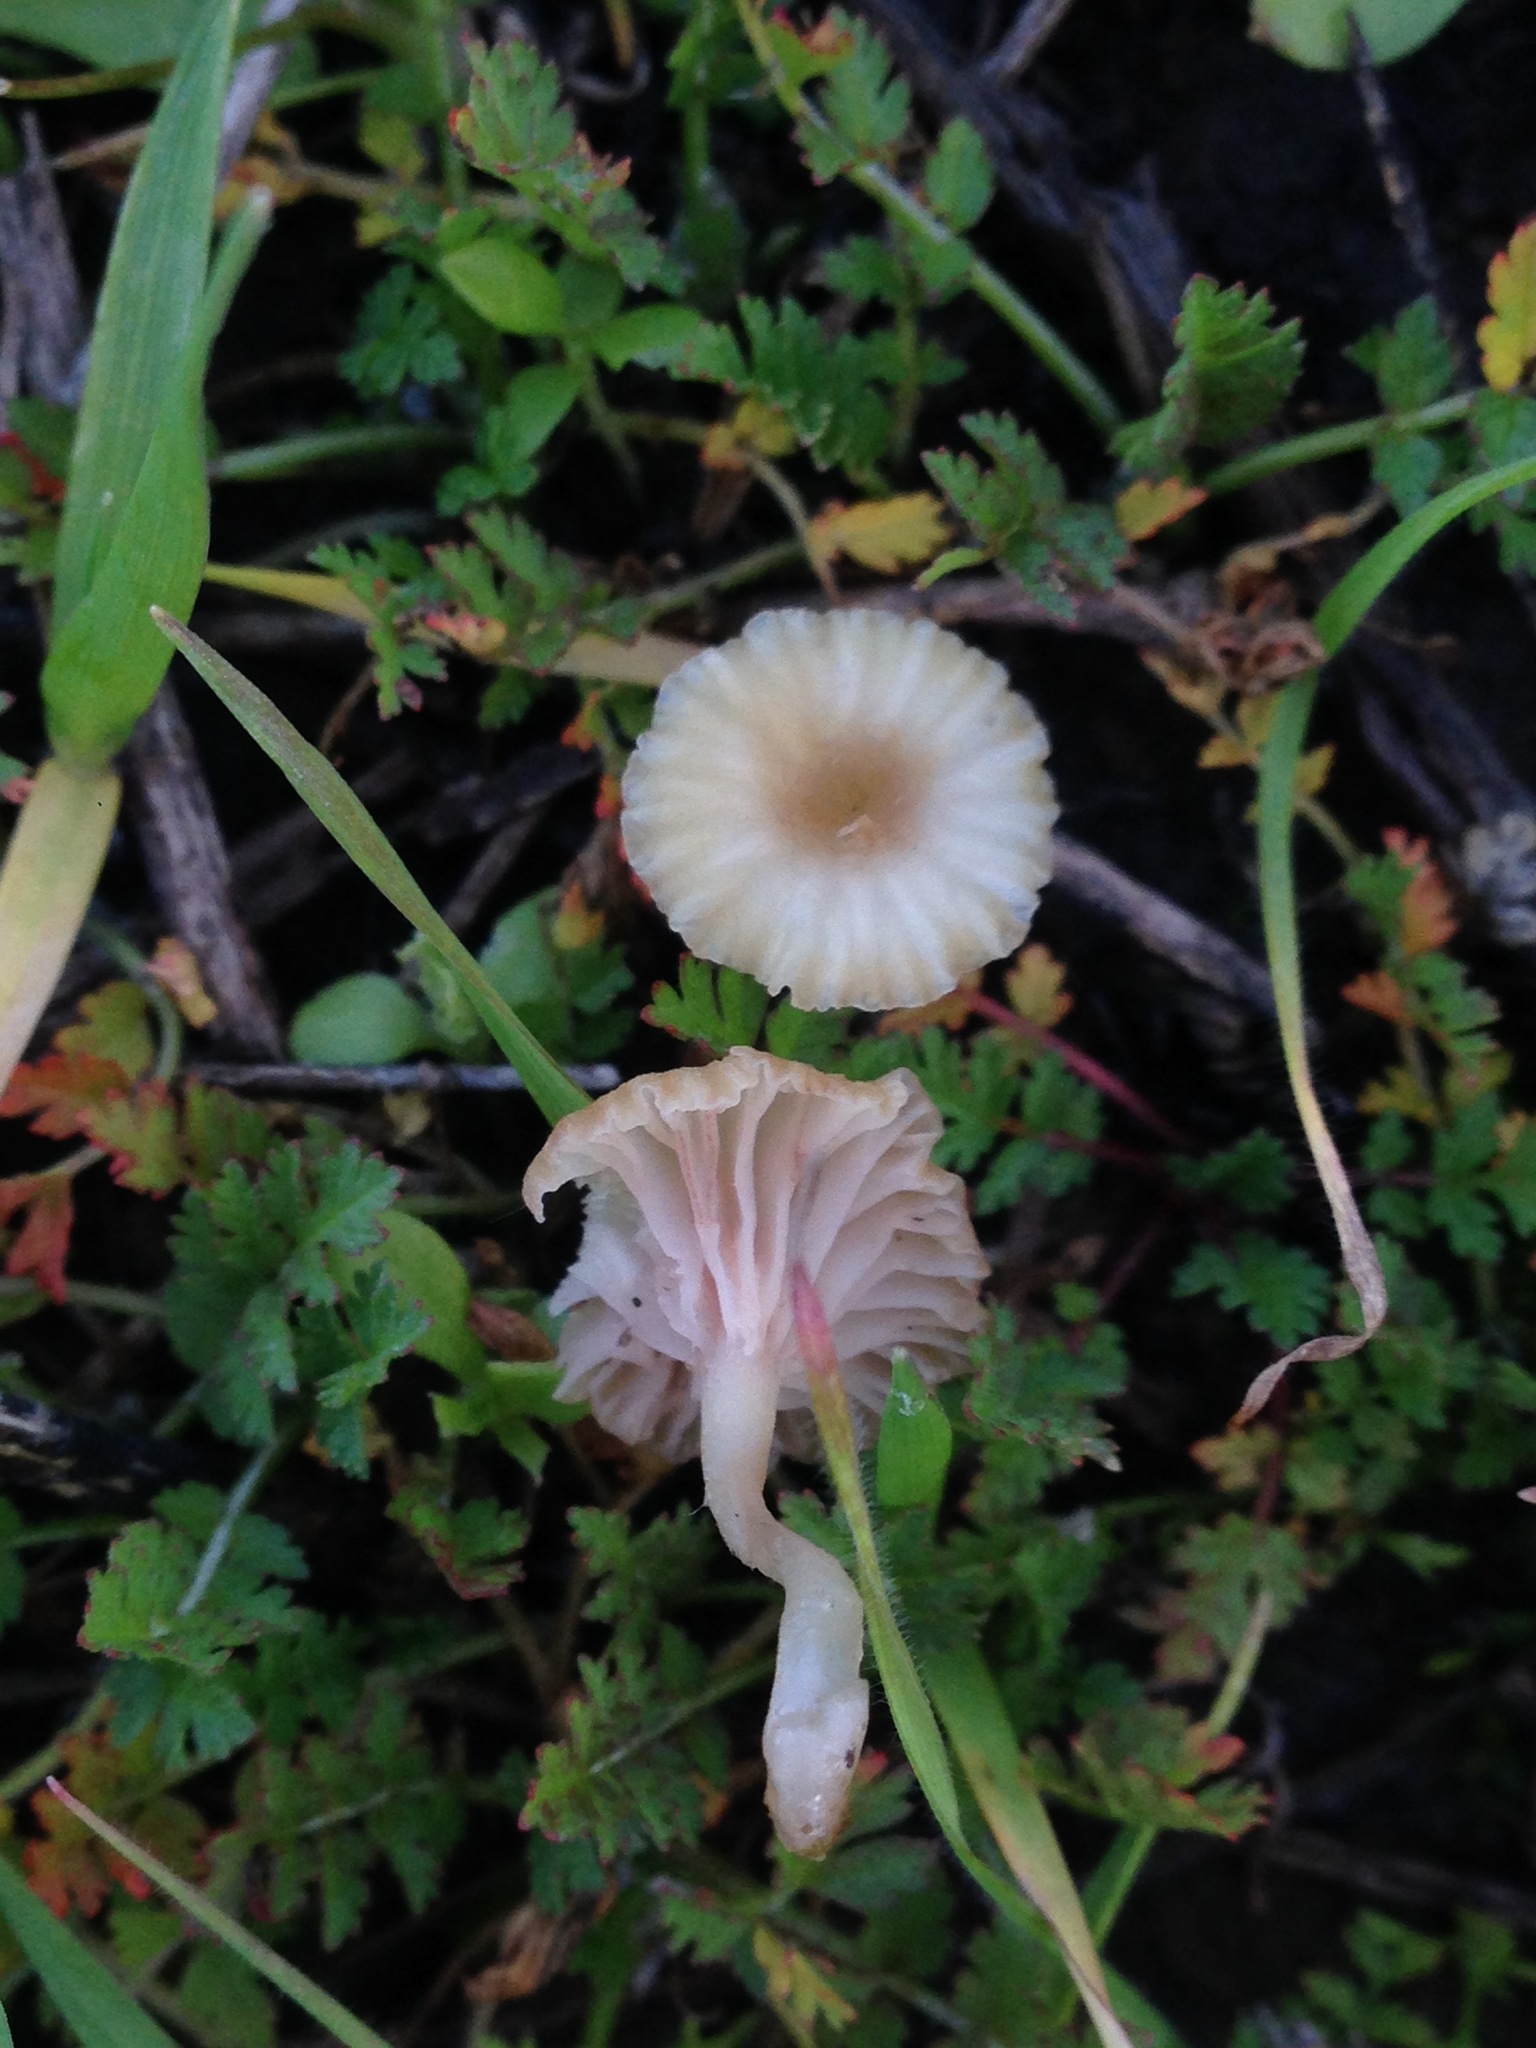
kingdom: Fungi
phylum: Basidiomycota
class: Agaricomycetes
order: Hymenochaetales
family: Rickenellaceae
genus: Contumyces
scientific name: Contumyces rosellus
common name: Rosy navel
